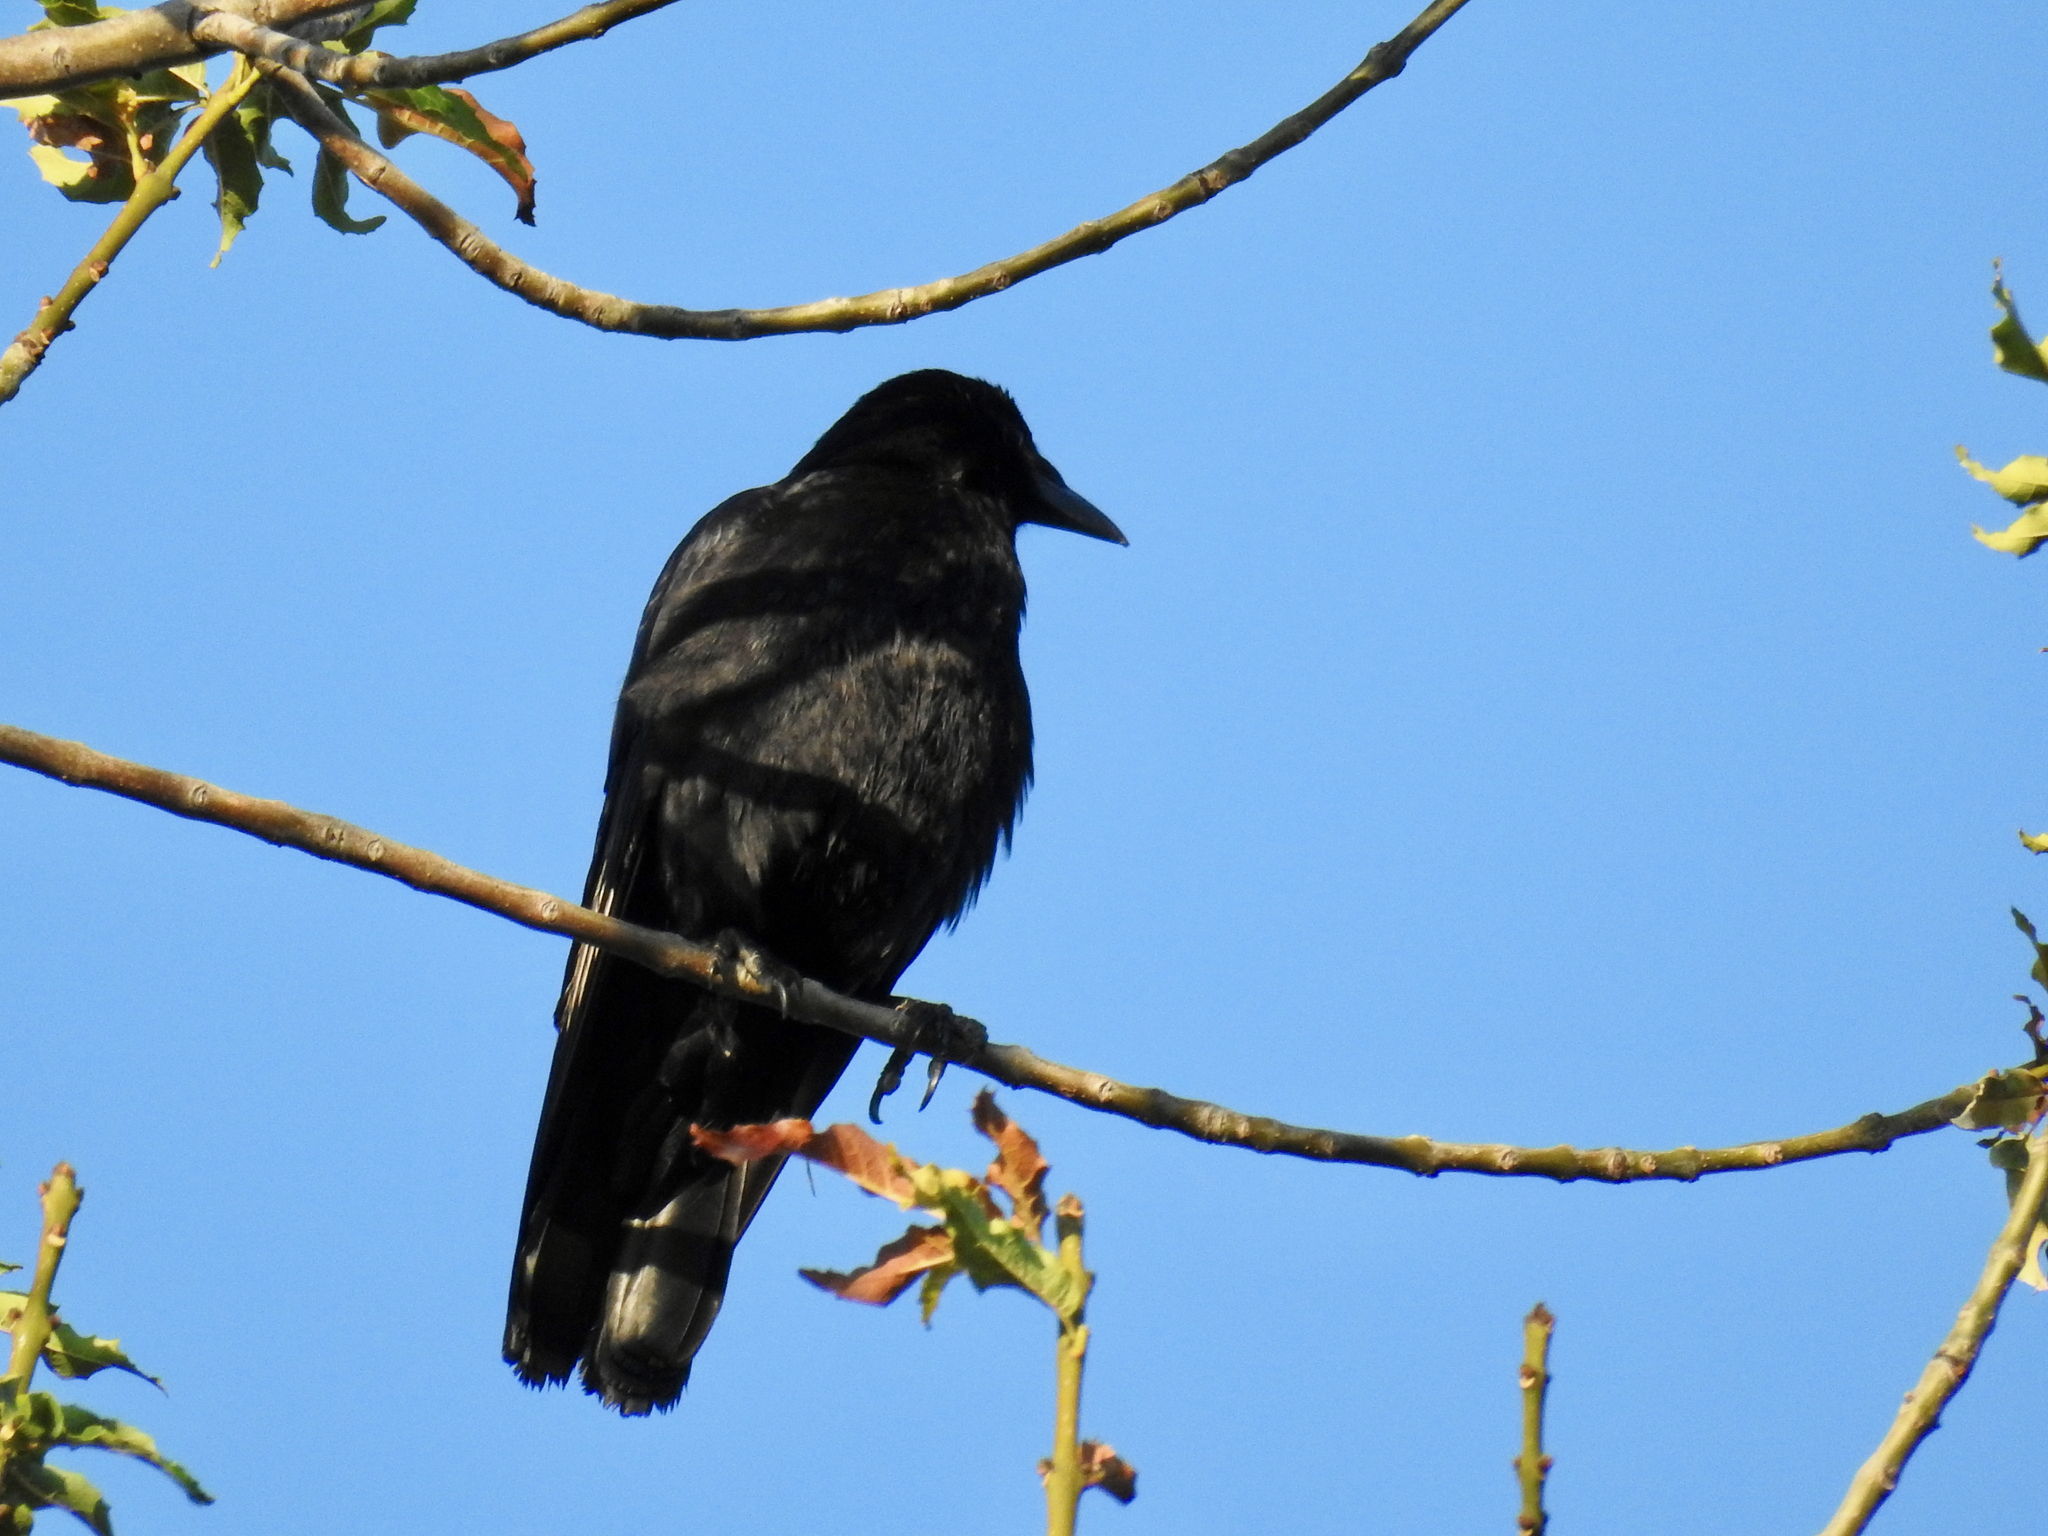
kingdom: Animalia
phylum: Chordata
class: Aves
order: Passeriformes
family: Corvidae
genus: Corvus
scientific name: Corvus brachyrhynchos
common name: American crow
